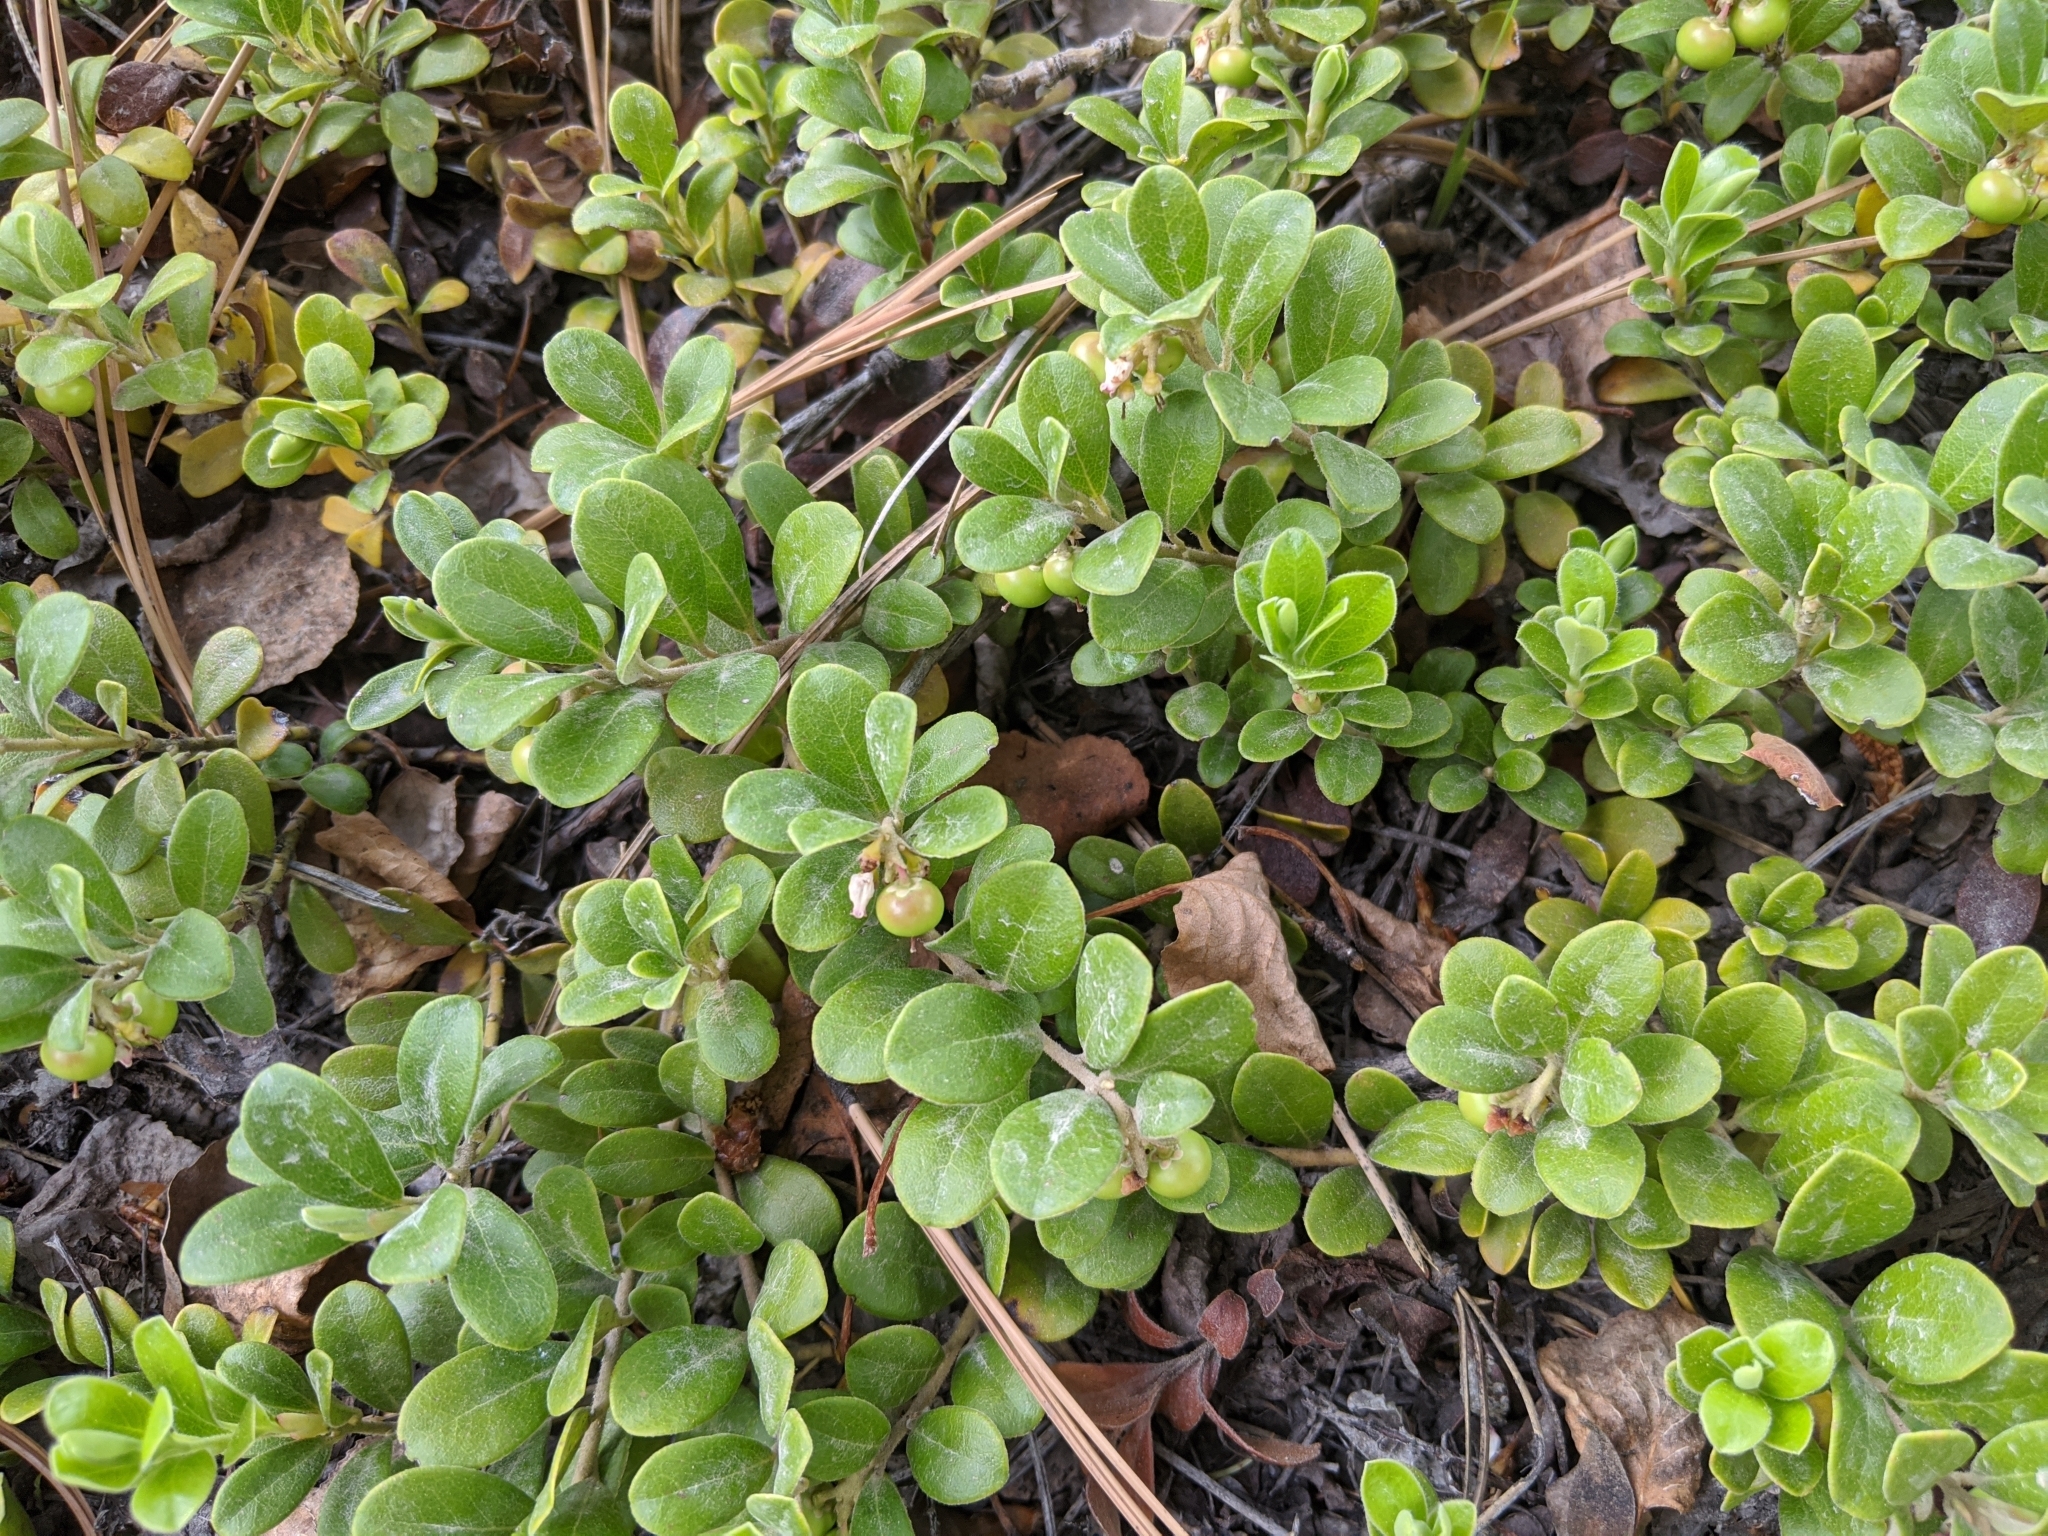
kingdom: Plantae
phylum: Tracheophyta
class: Magnoliopsida
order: Ericales
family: Ericaceae
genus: Arctostaphylos
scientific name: Arctostaphylos uva-ursi
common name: Bearberry
